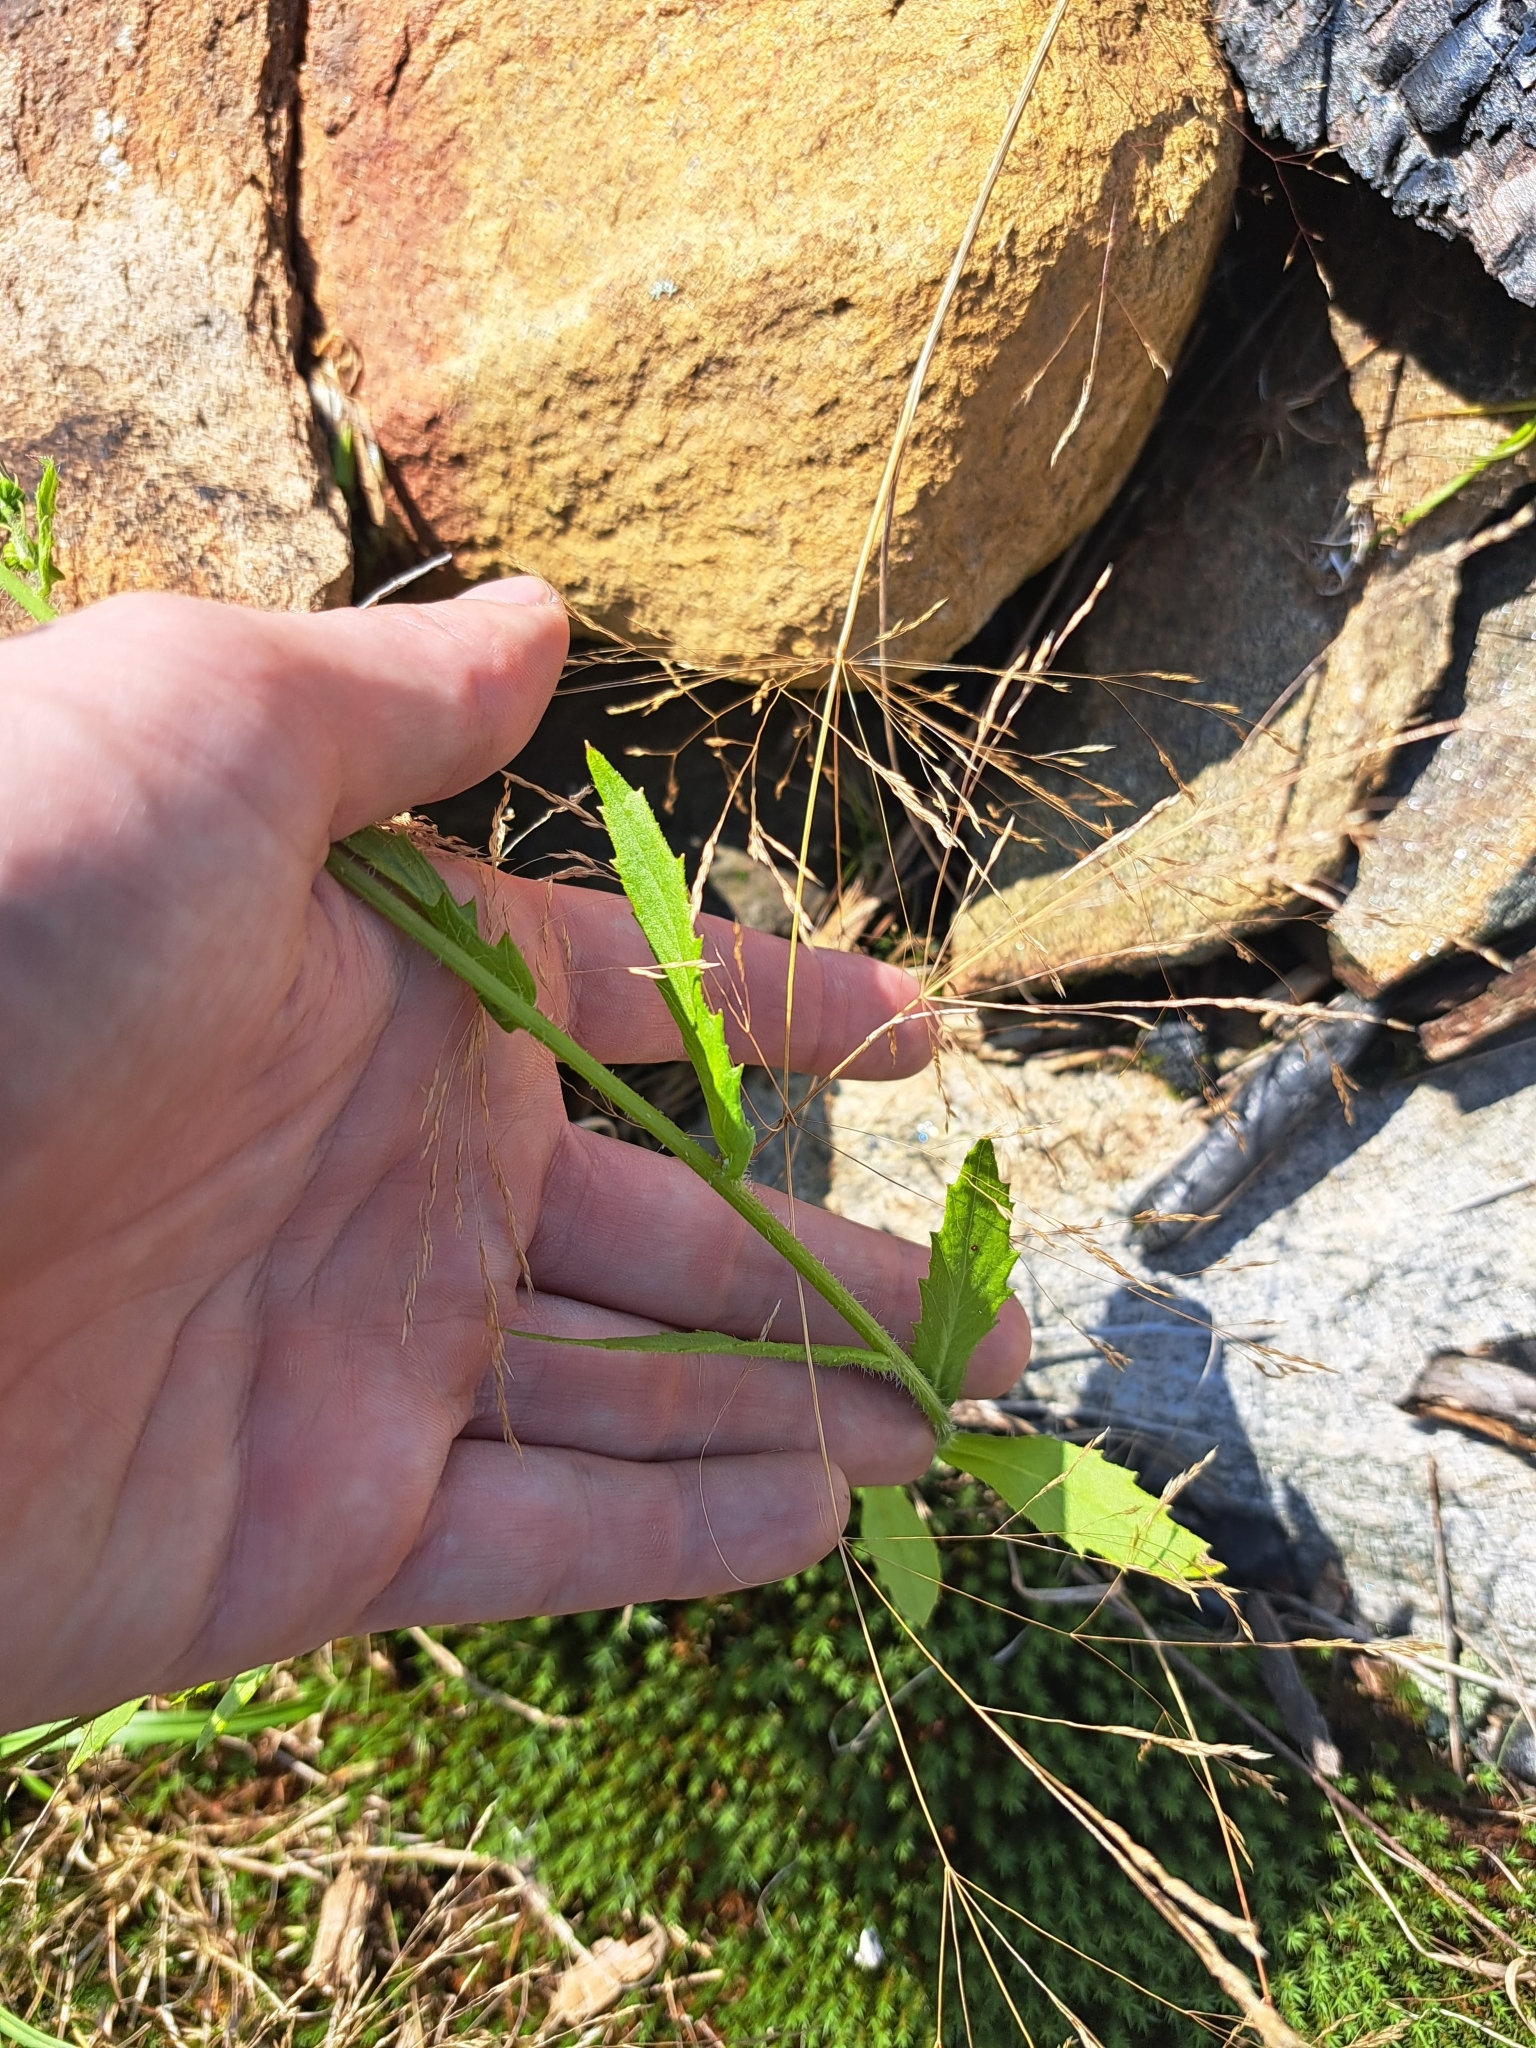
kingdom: Plantae
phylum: Tracheophyta
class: Magnoliopsida
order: Asterales
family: Asteraceae
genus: Erechtites
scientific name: Erechtites hieraciifolius
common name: American burnweed
